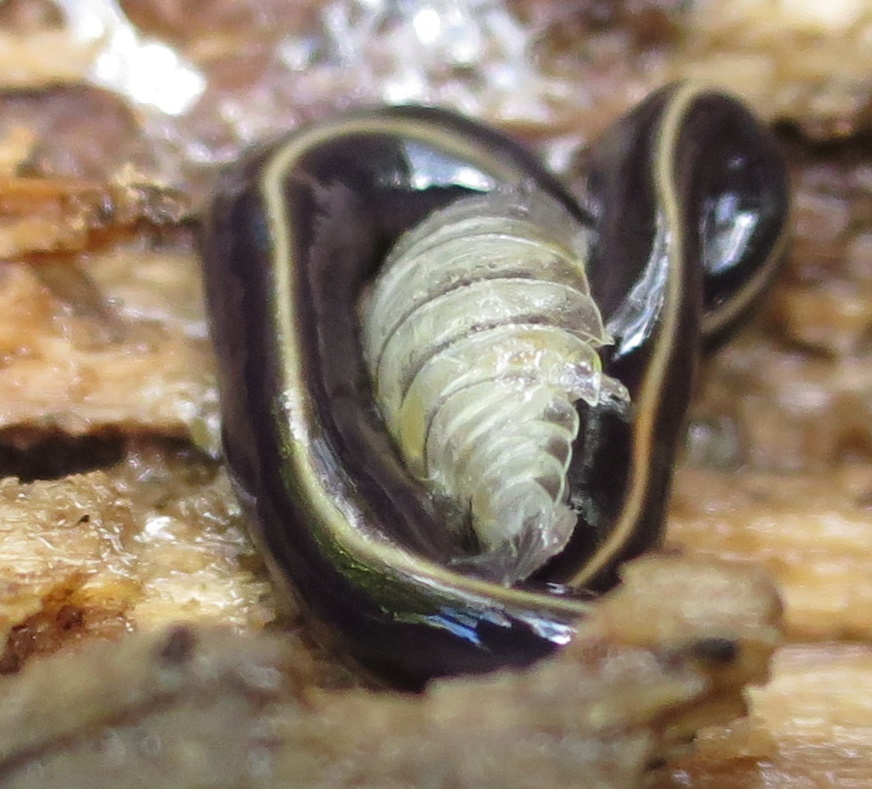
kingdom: Animalia
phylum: Platyhelminthes
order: Tricladida
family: Geoplanidae
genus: Caenoplana
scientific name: Caenoplana coerulea
